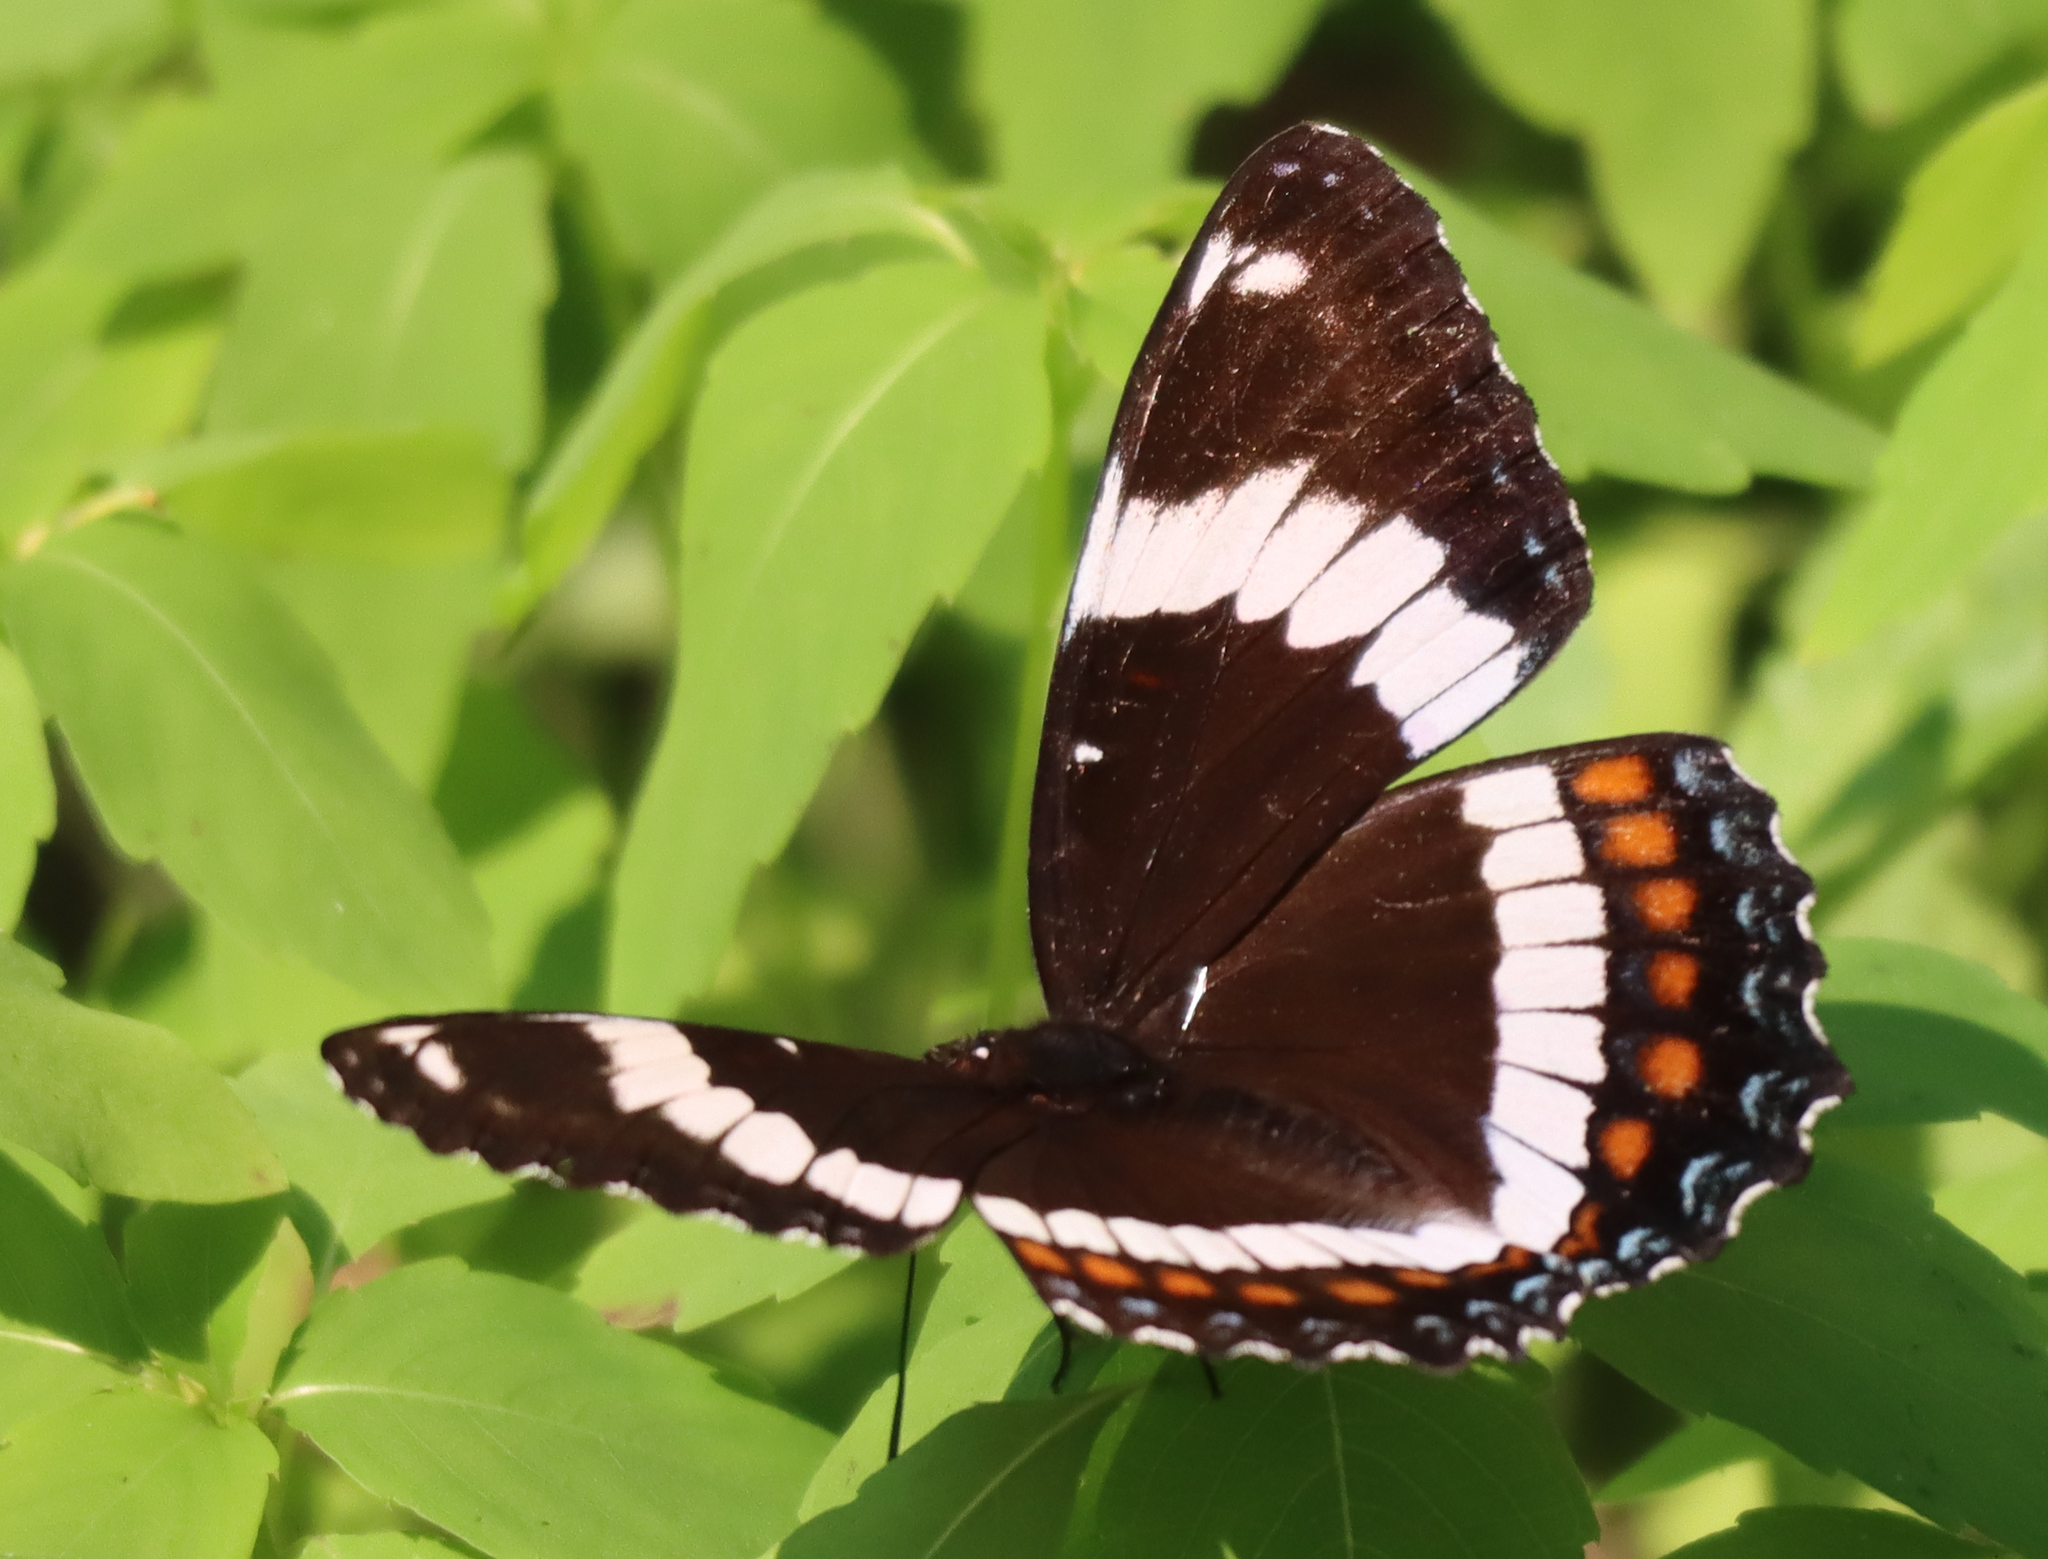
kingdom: Animalia
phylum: Arthropoda
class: Insecta
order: Lepidoptera
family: Nymphalidae
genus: Limenitis
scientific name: Limenitis arthemis
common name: Red-spotted admiral
